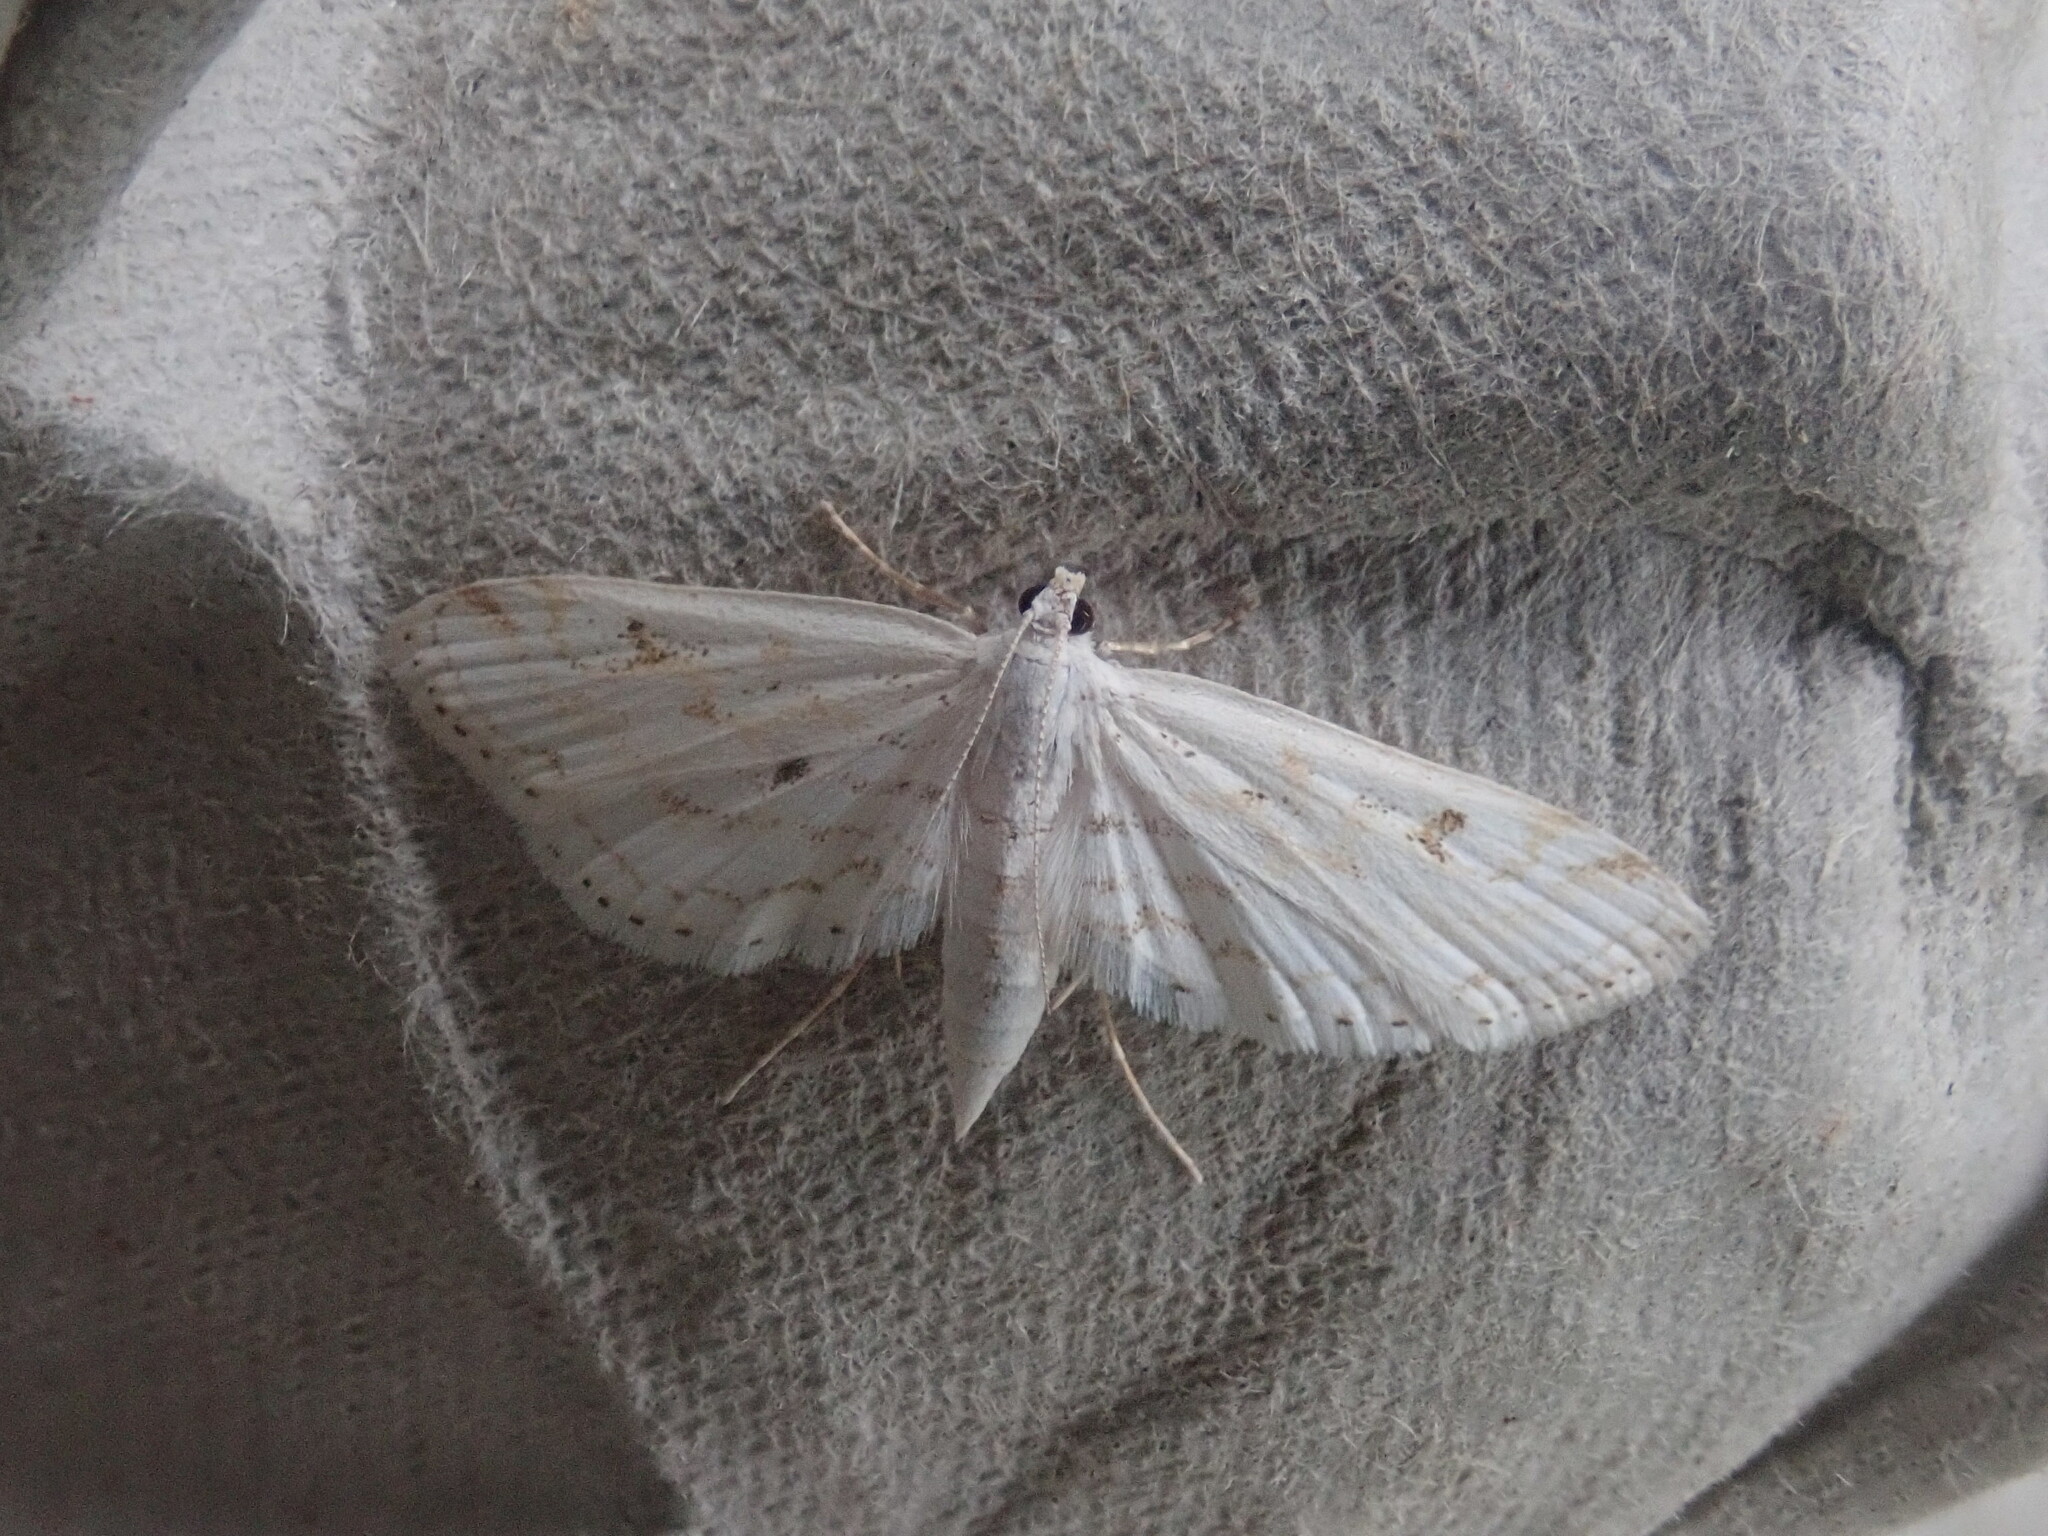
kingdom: Animalia
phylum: Arthropoda
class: Insecta
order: Lepidoptera
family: Crambidae
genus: Parapoynx
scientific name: Parapoynx allionealis
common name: Bladderwort casemaker
